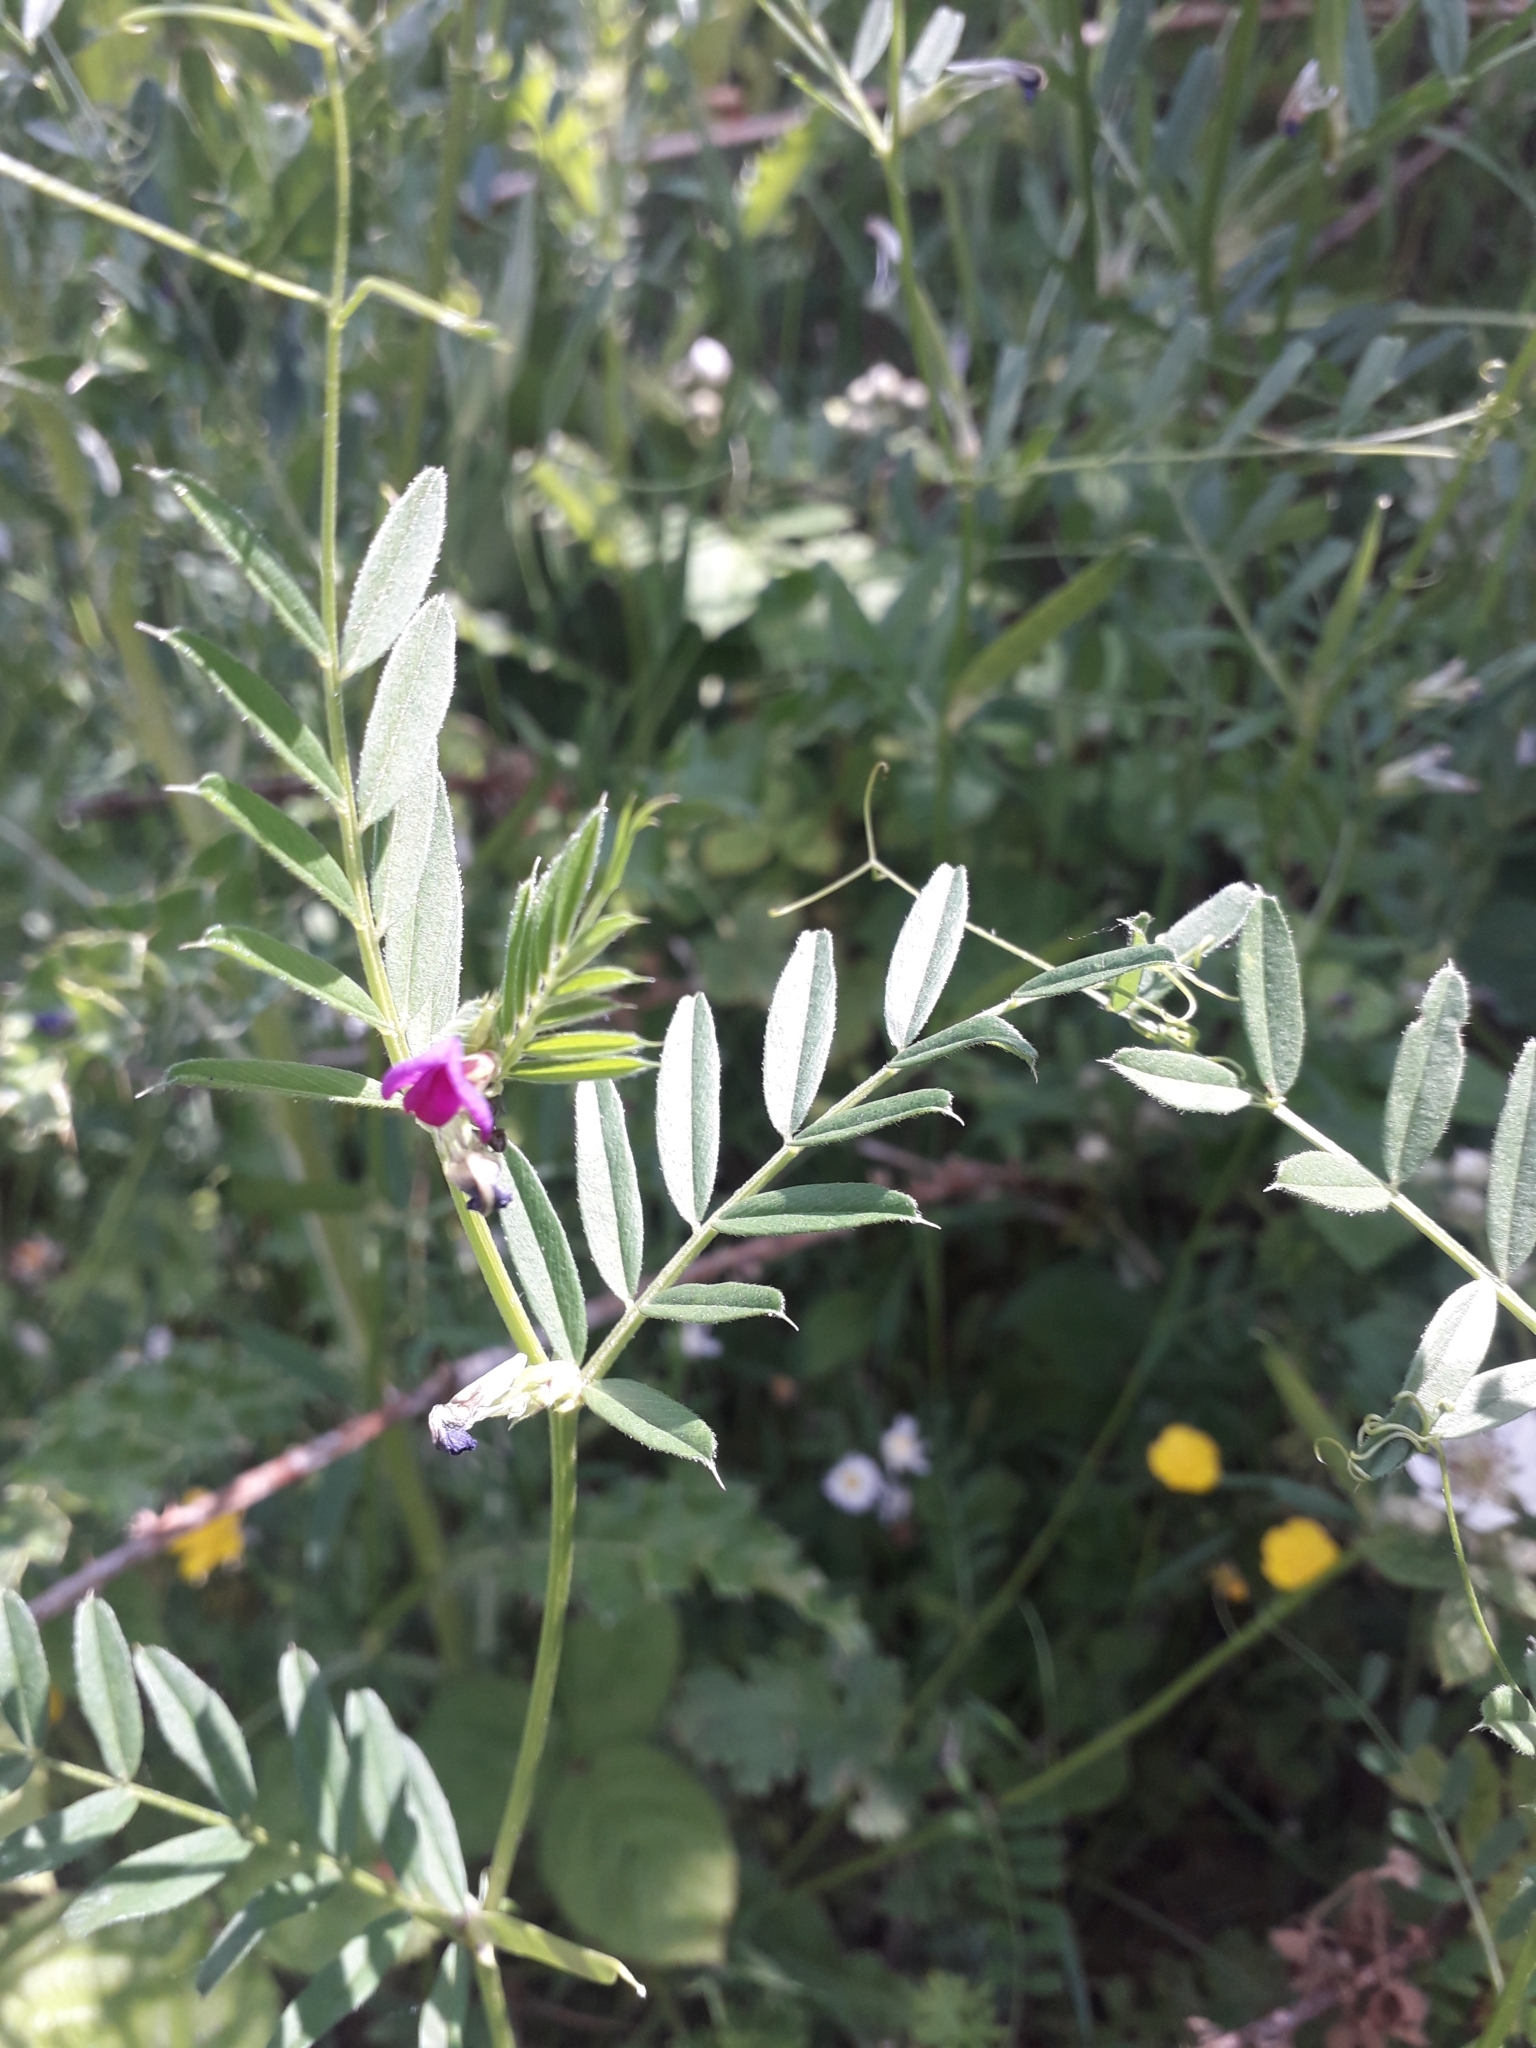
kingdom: Plantae
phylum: Tracheophyta
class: Magnoliopsida
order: Fabales
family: Fabaceae
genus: Vicia
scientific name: Vicia sativa
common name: Garden vetch
